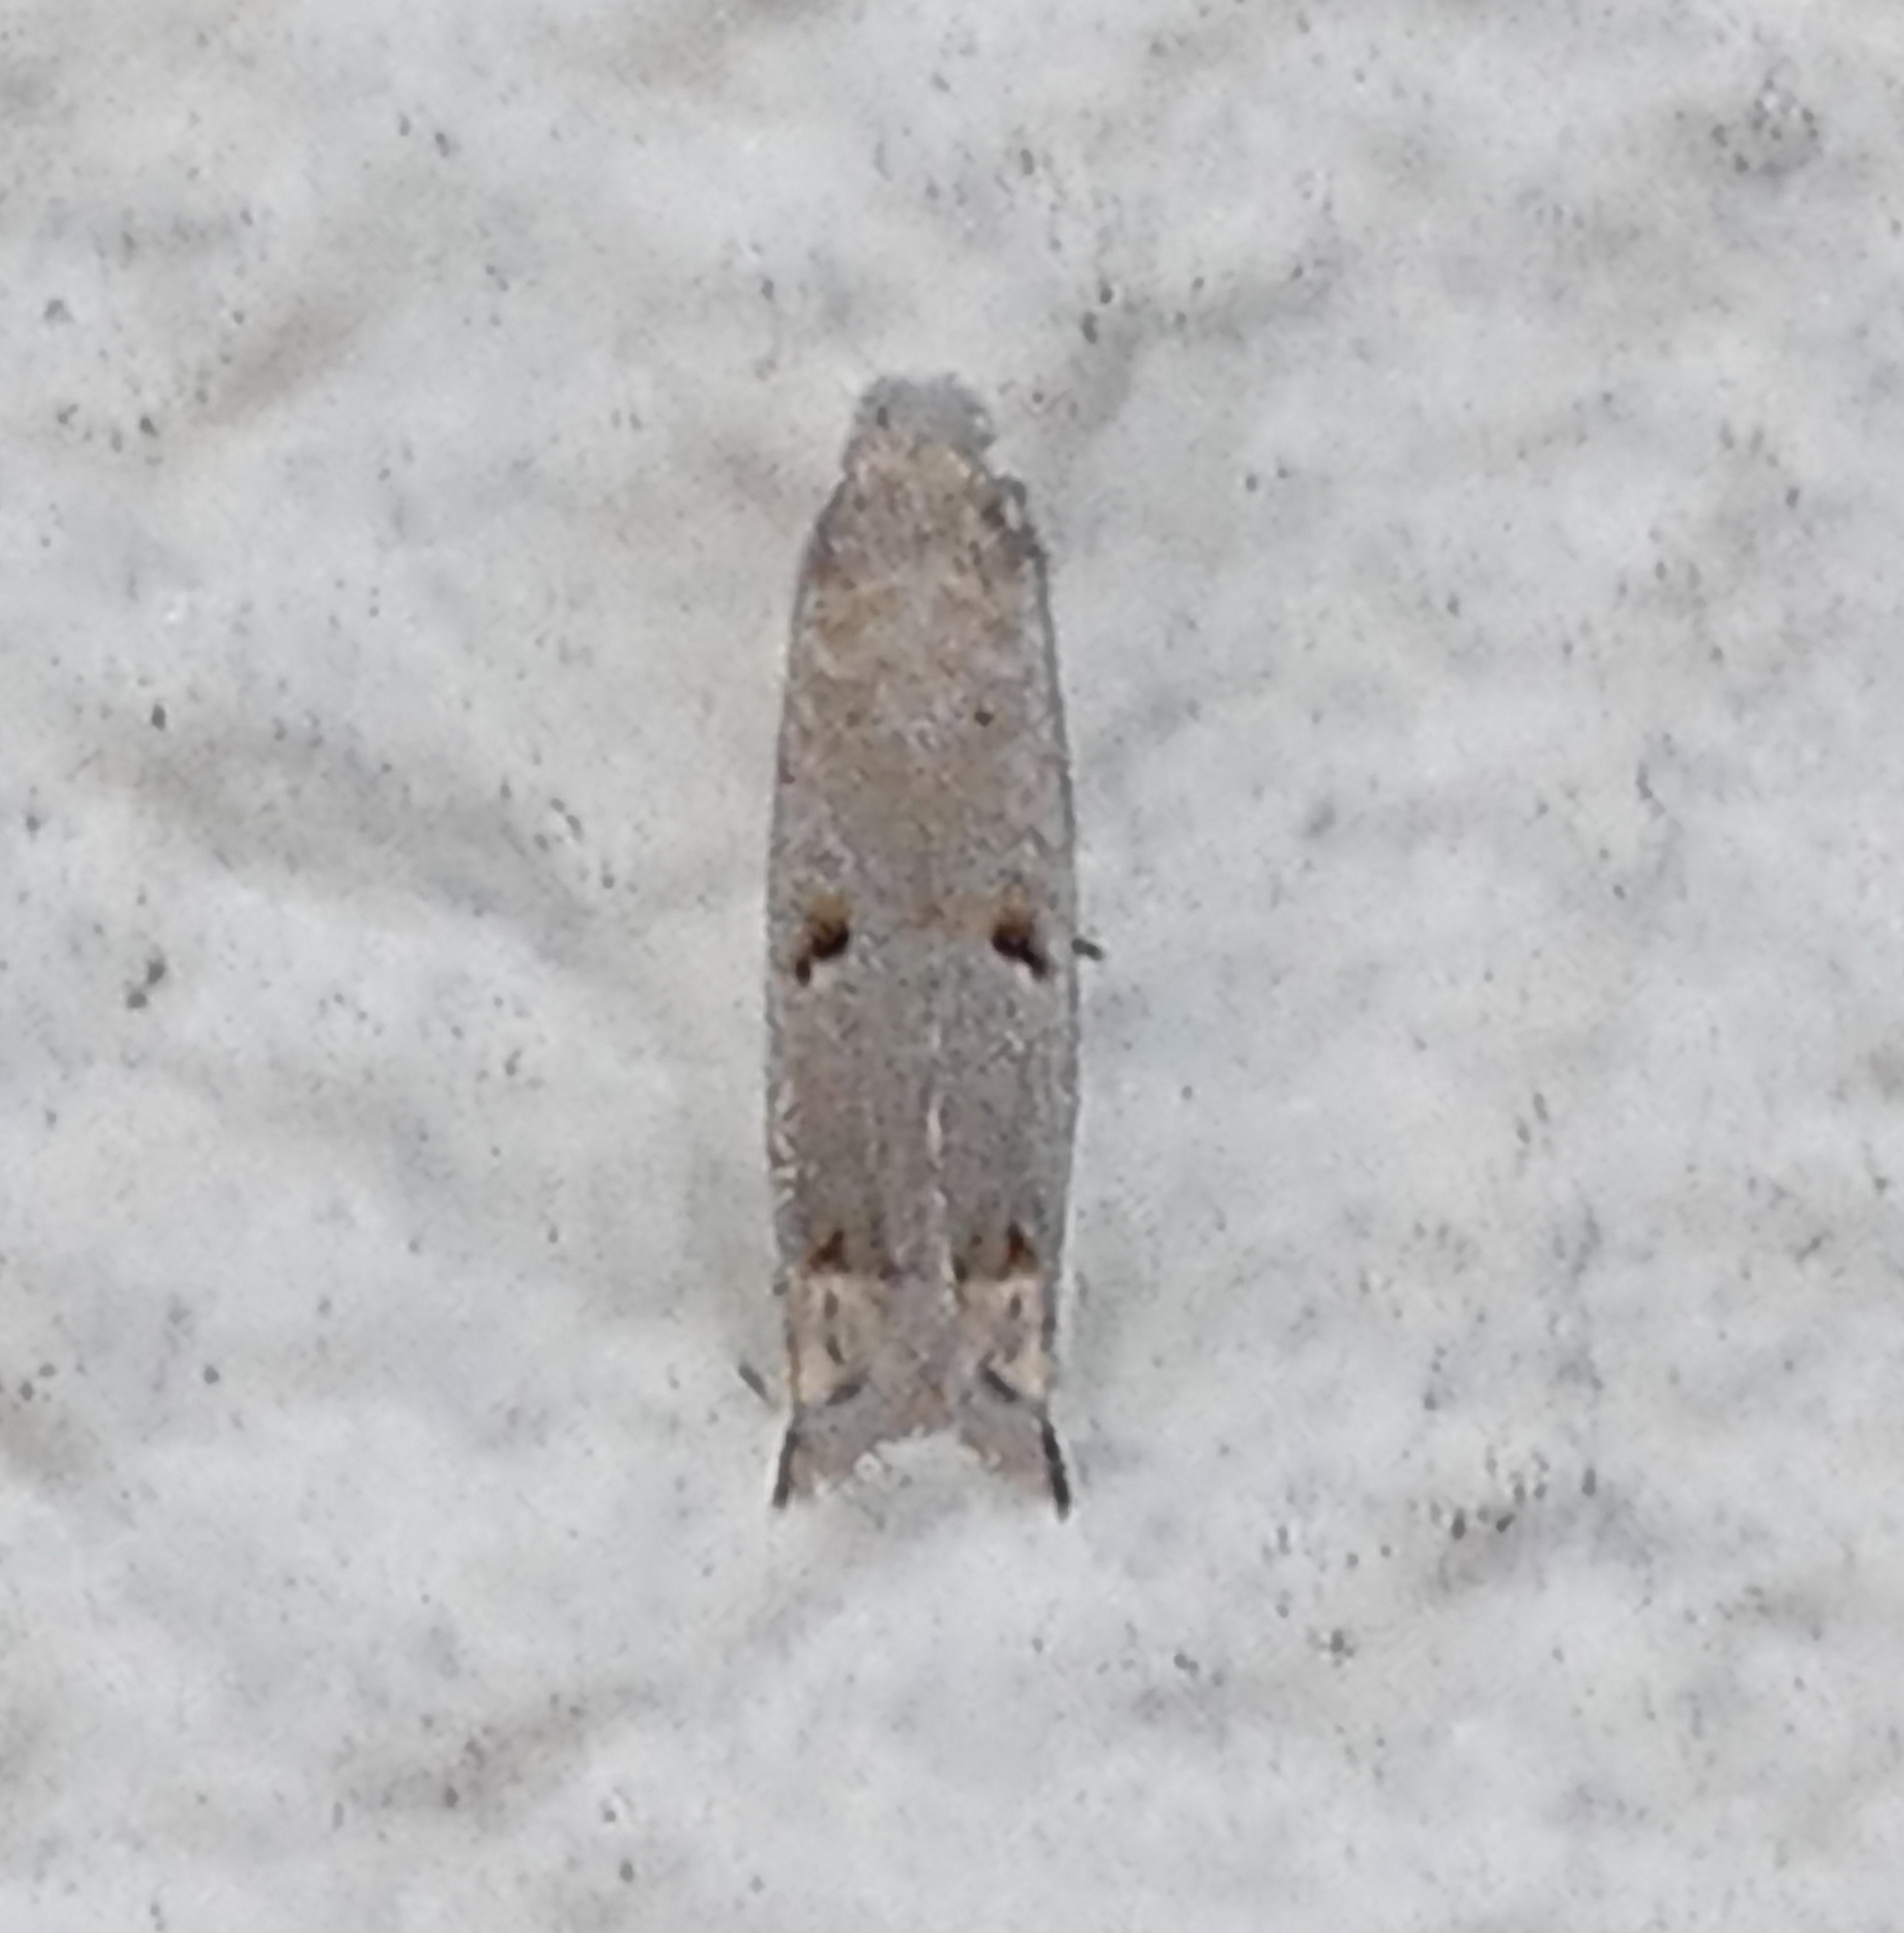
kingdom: Animalia
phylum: Arthropoda
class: Insecta
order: Lepidoptera
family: Tortricidae
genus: Epiblema
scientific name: Epiblema praesumptiosa
